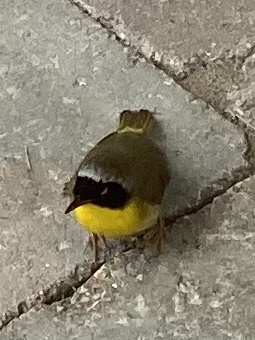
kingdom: Animalia
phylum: Chordata
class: Aves
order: Passeriformes
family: Parulidae
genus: Geothlypis
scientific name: Geothlypis trichas
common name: Common yellowthroat
